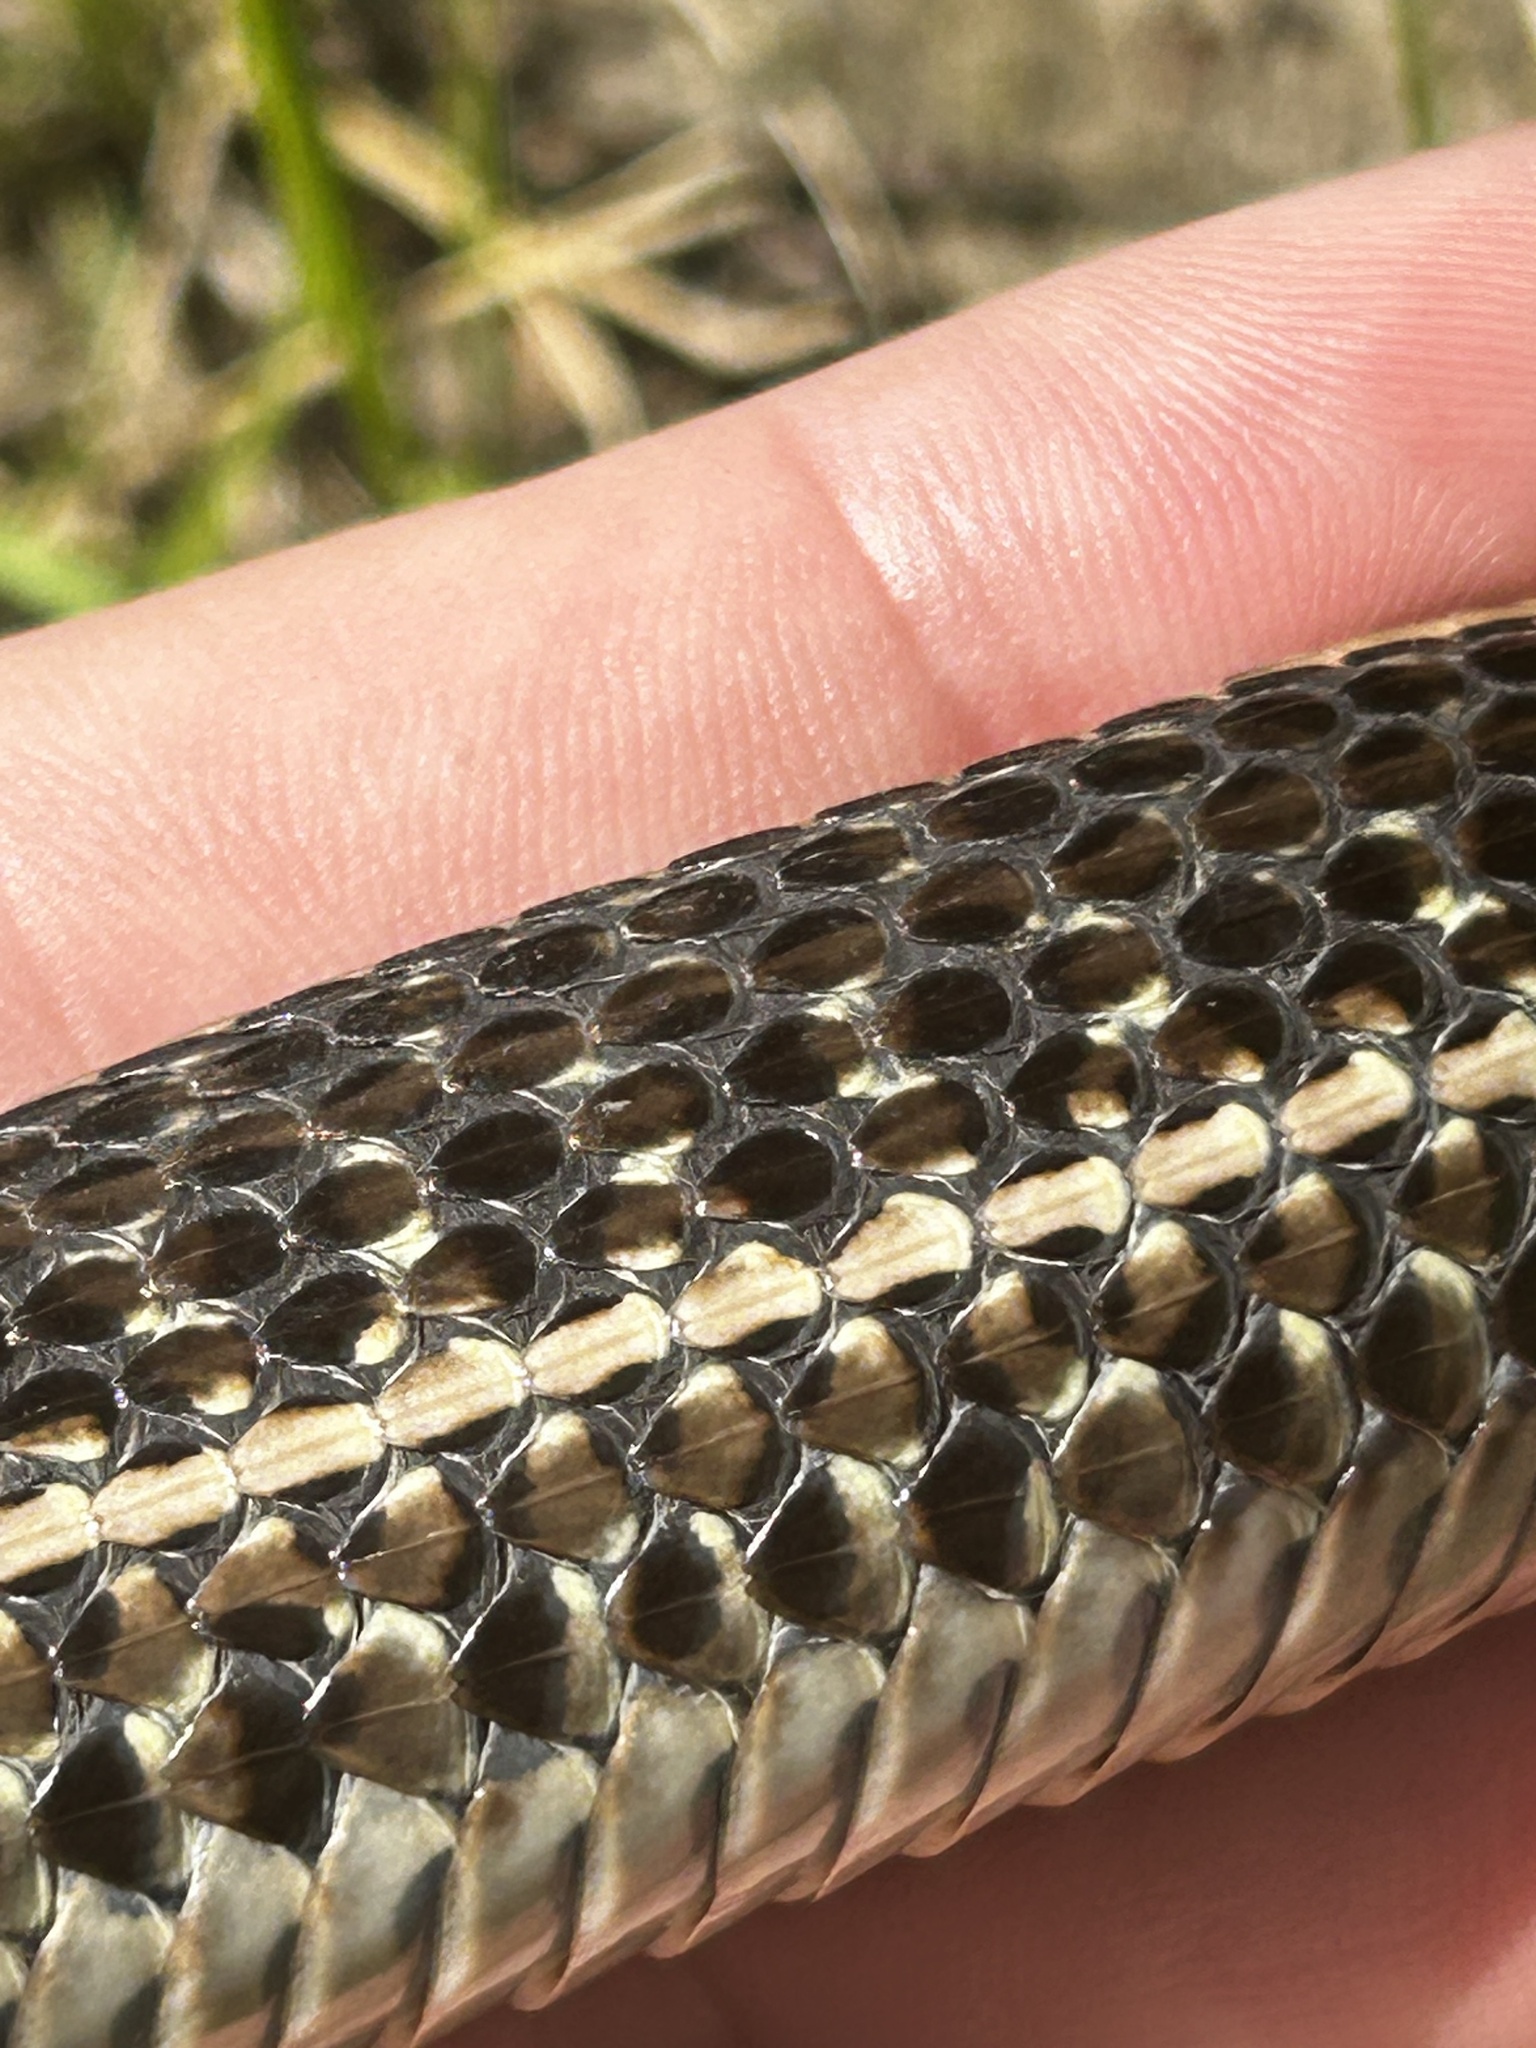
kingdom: Animalia
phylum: Chordata
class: Squamata
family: Colubridae
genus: Thamnophis
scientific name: Thamnophis radix
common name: Plains garter snake
